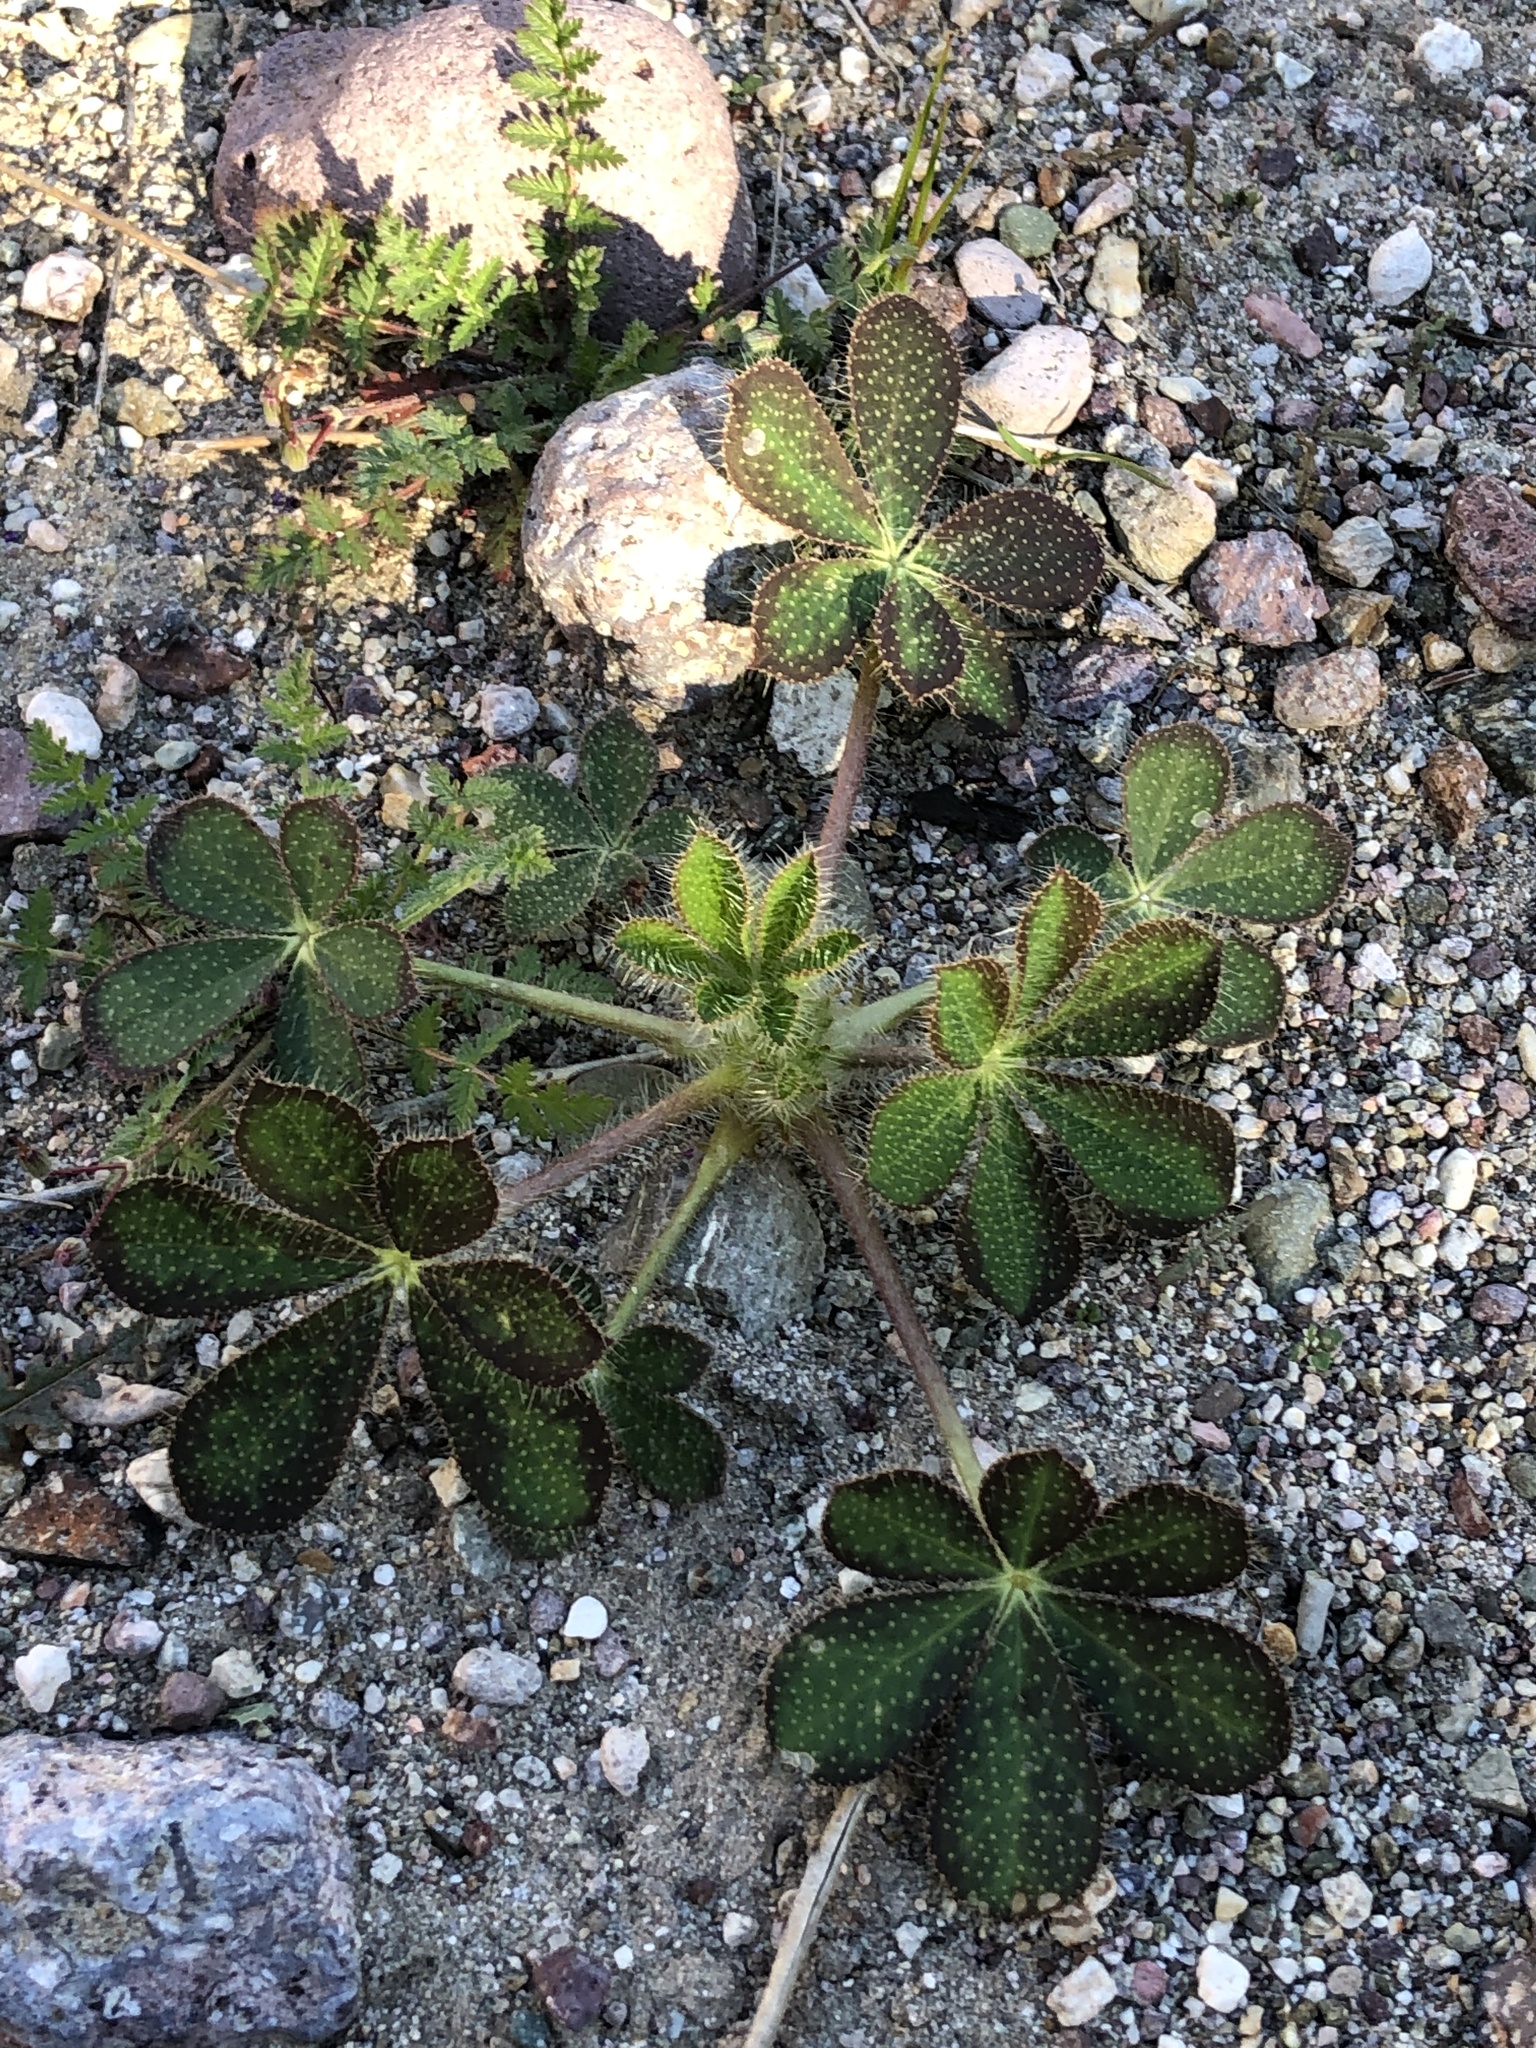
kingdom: Plantae
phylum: Tracheophyta
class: Magnoliopsida
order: Fabales
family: Fabaceae
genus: Lupinus
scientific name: Lupinus hirsutissimus
